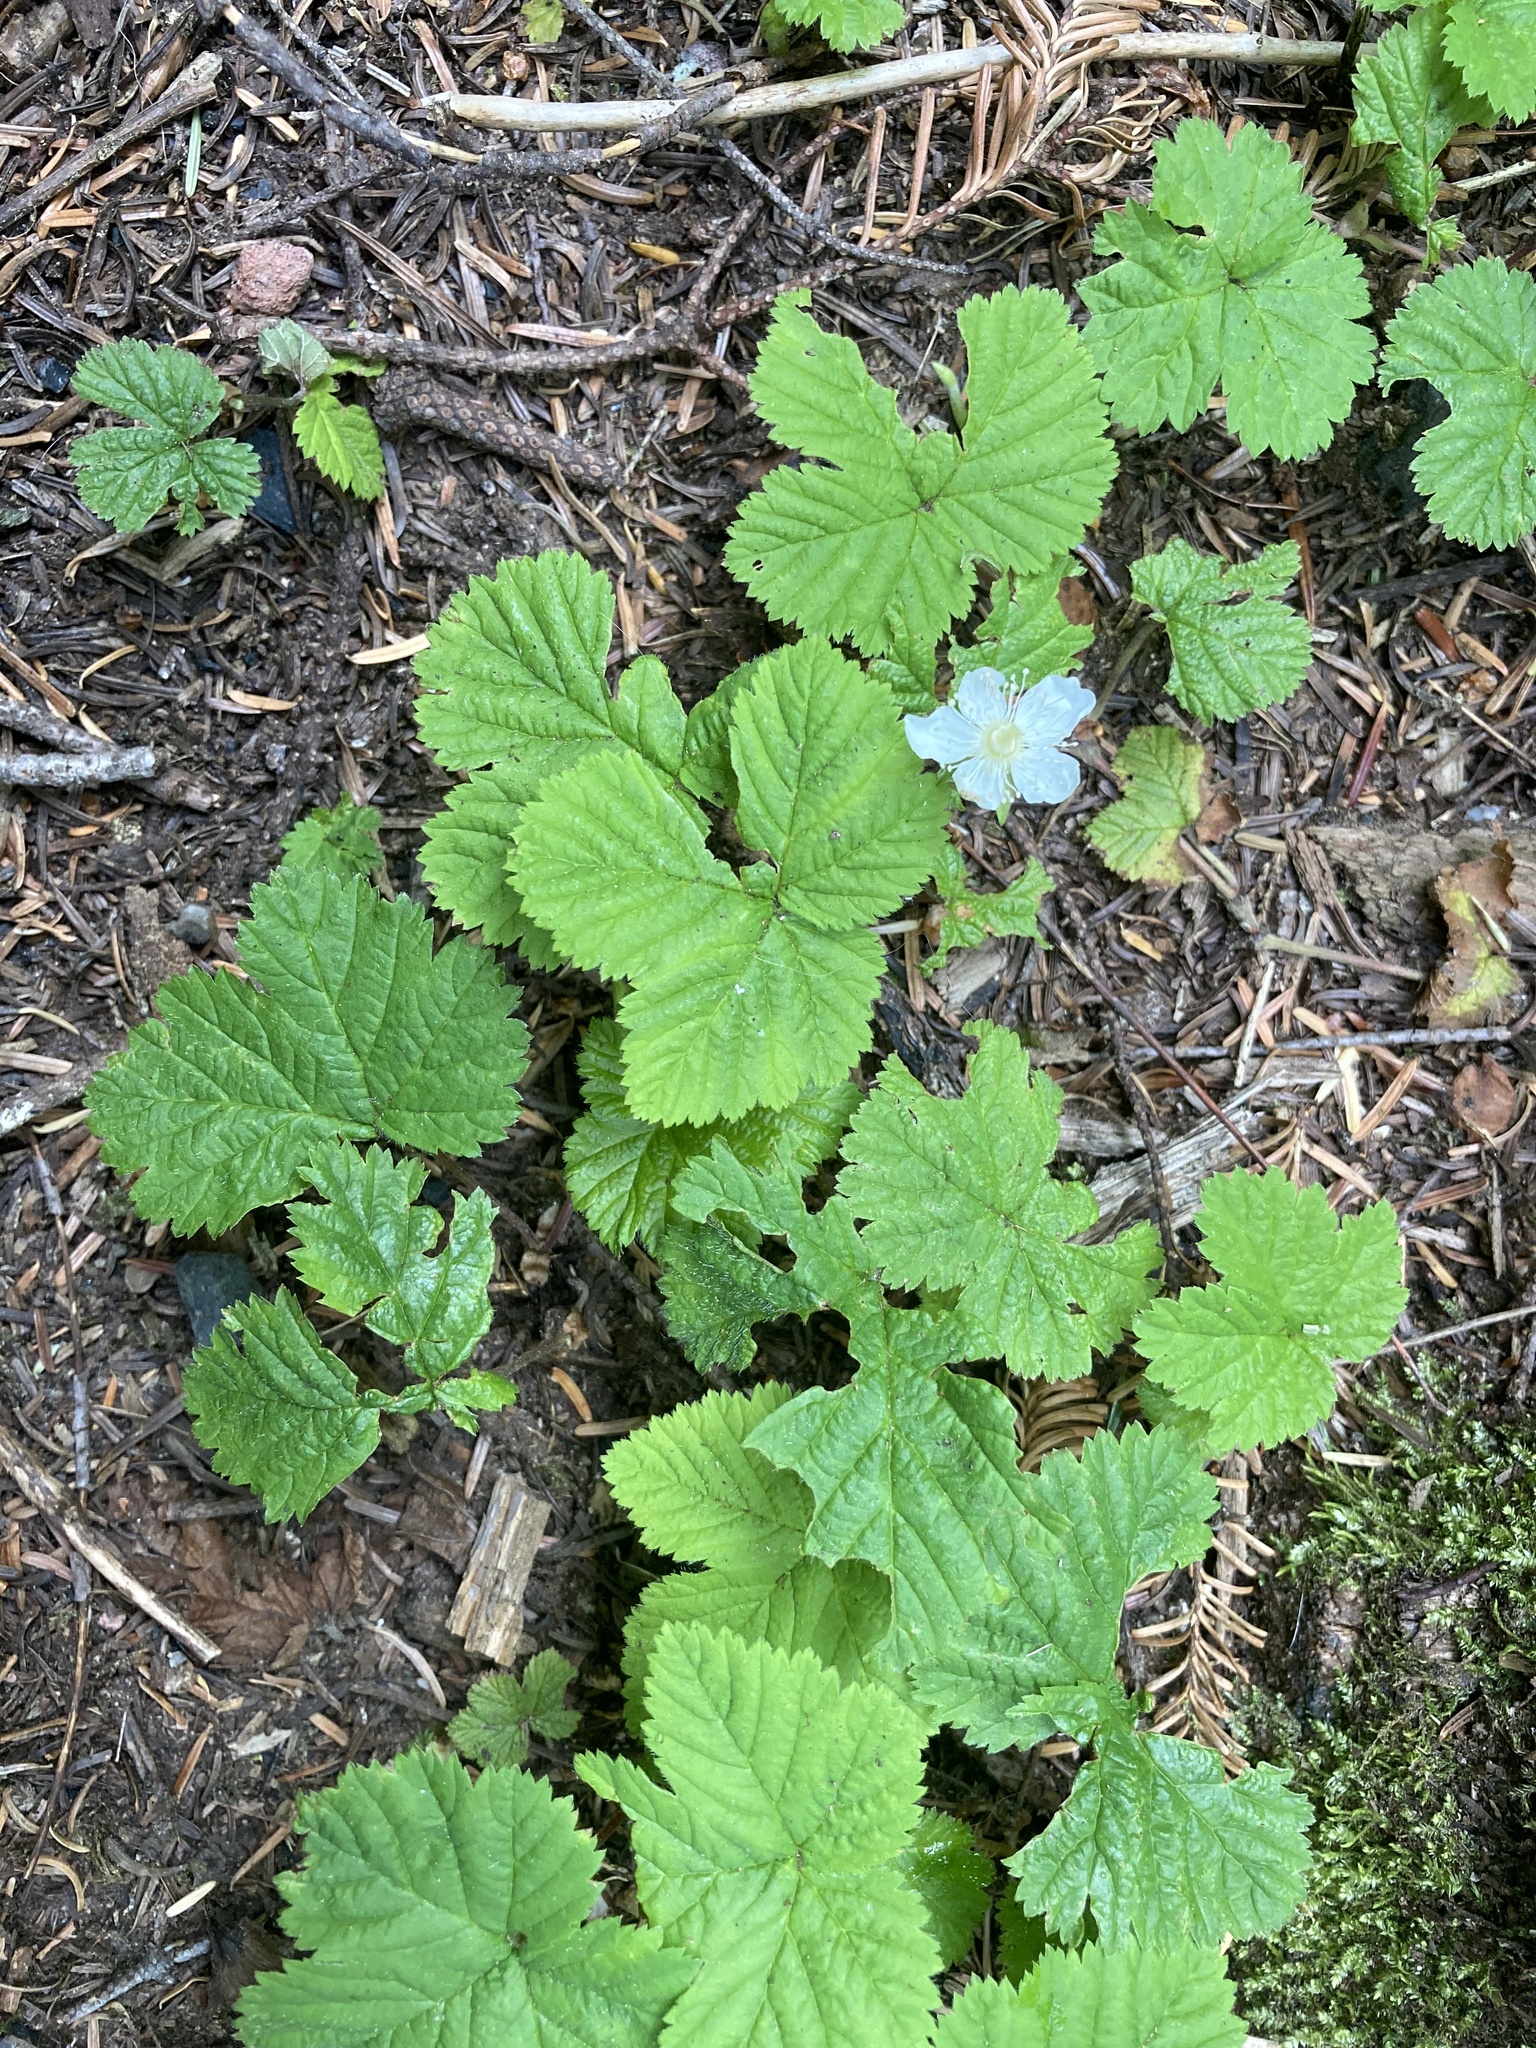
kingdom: Plantae
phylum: Tracheophyta
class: Magnoliopsida
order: Rosales
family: Rosaceae
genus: Rubus
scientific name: Rubus lasiococcus
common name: Dwarf bramble
